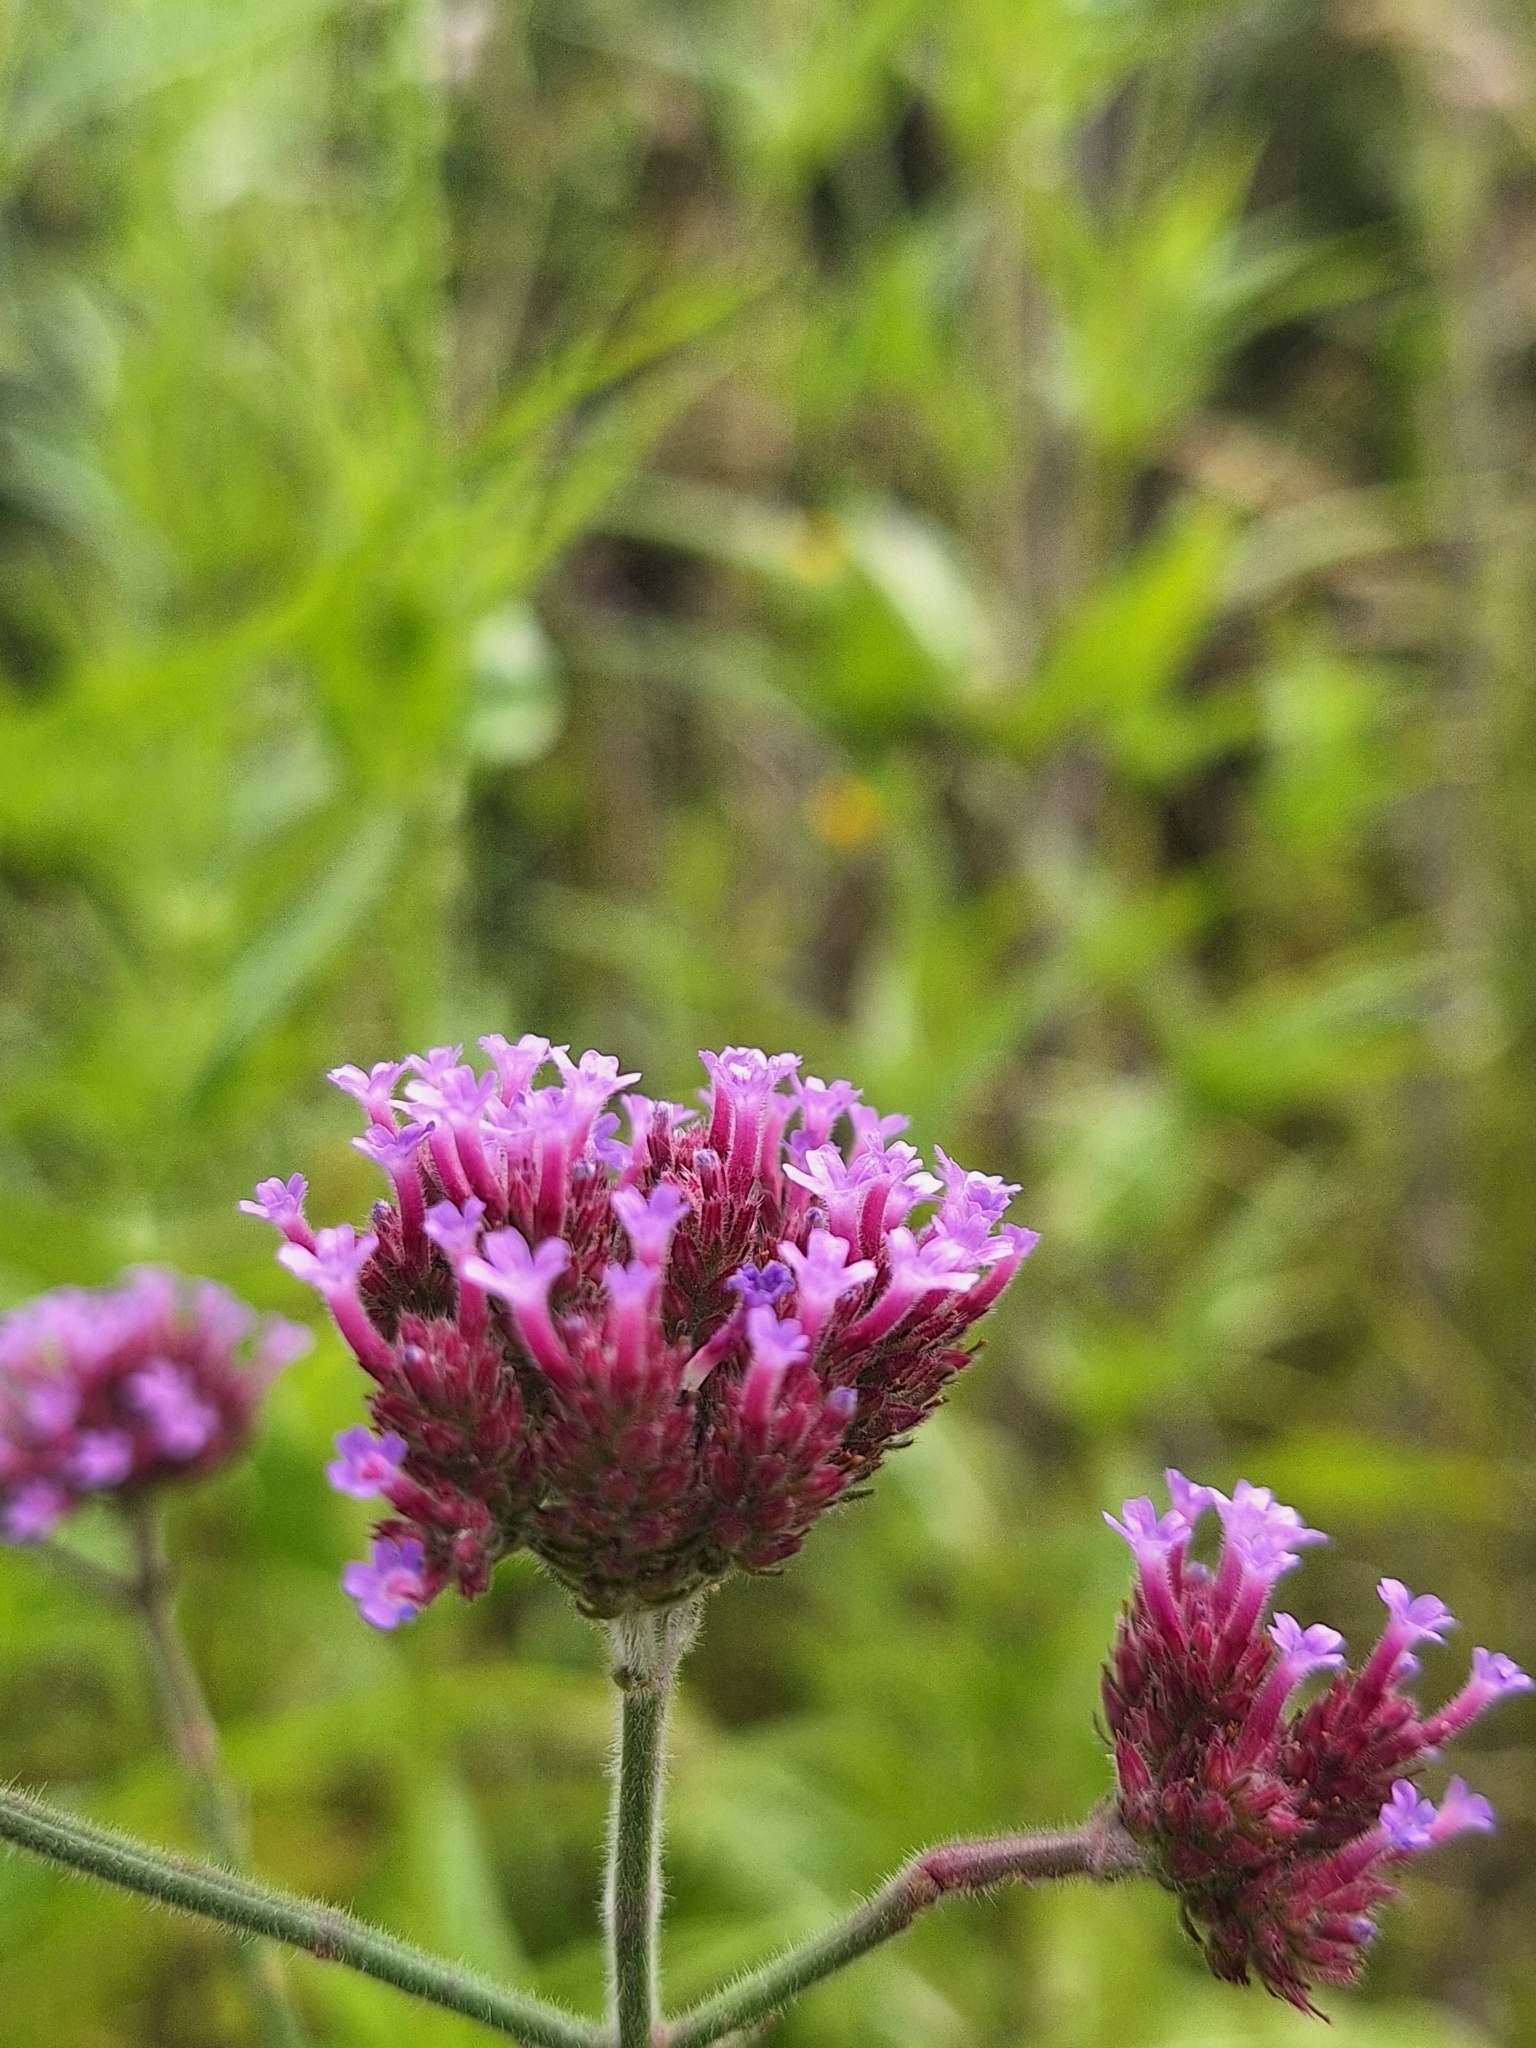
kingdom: Plantae
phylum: Tracheophyta
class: Magnoliopsida
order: Lamiales
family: Verbenaceae
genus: Verbena
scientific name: Verbena bonariensis
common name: Purpletop vervain
